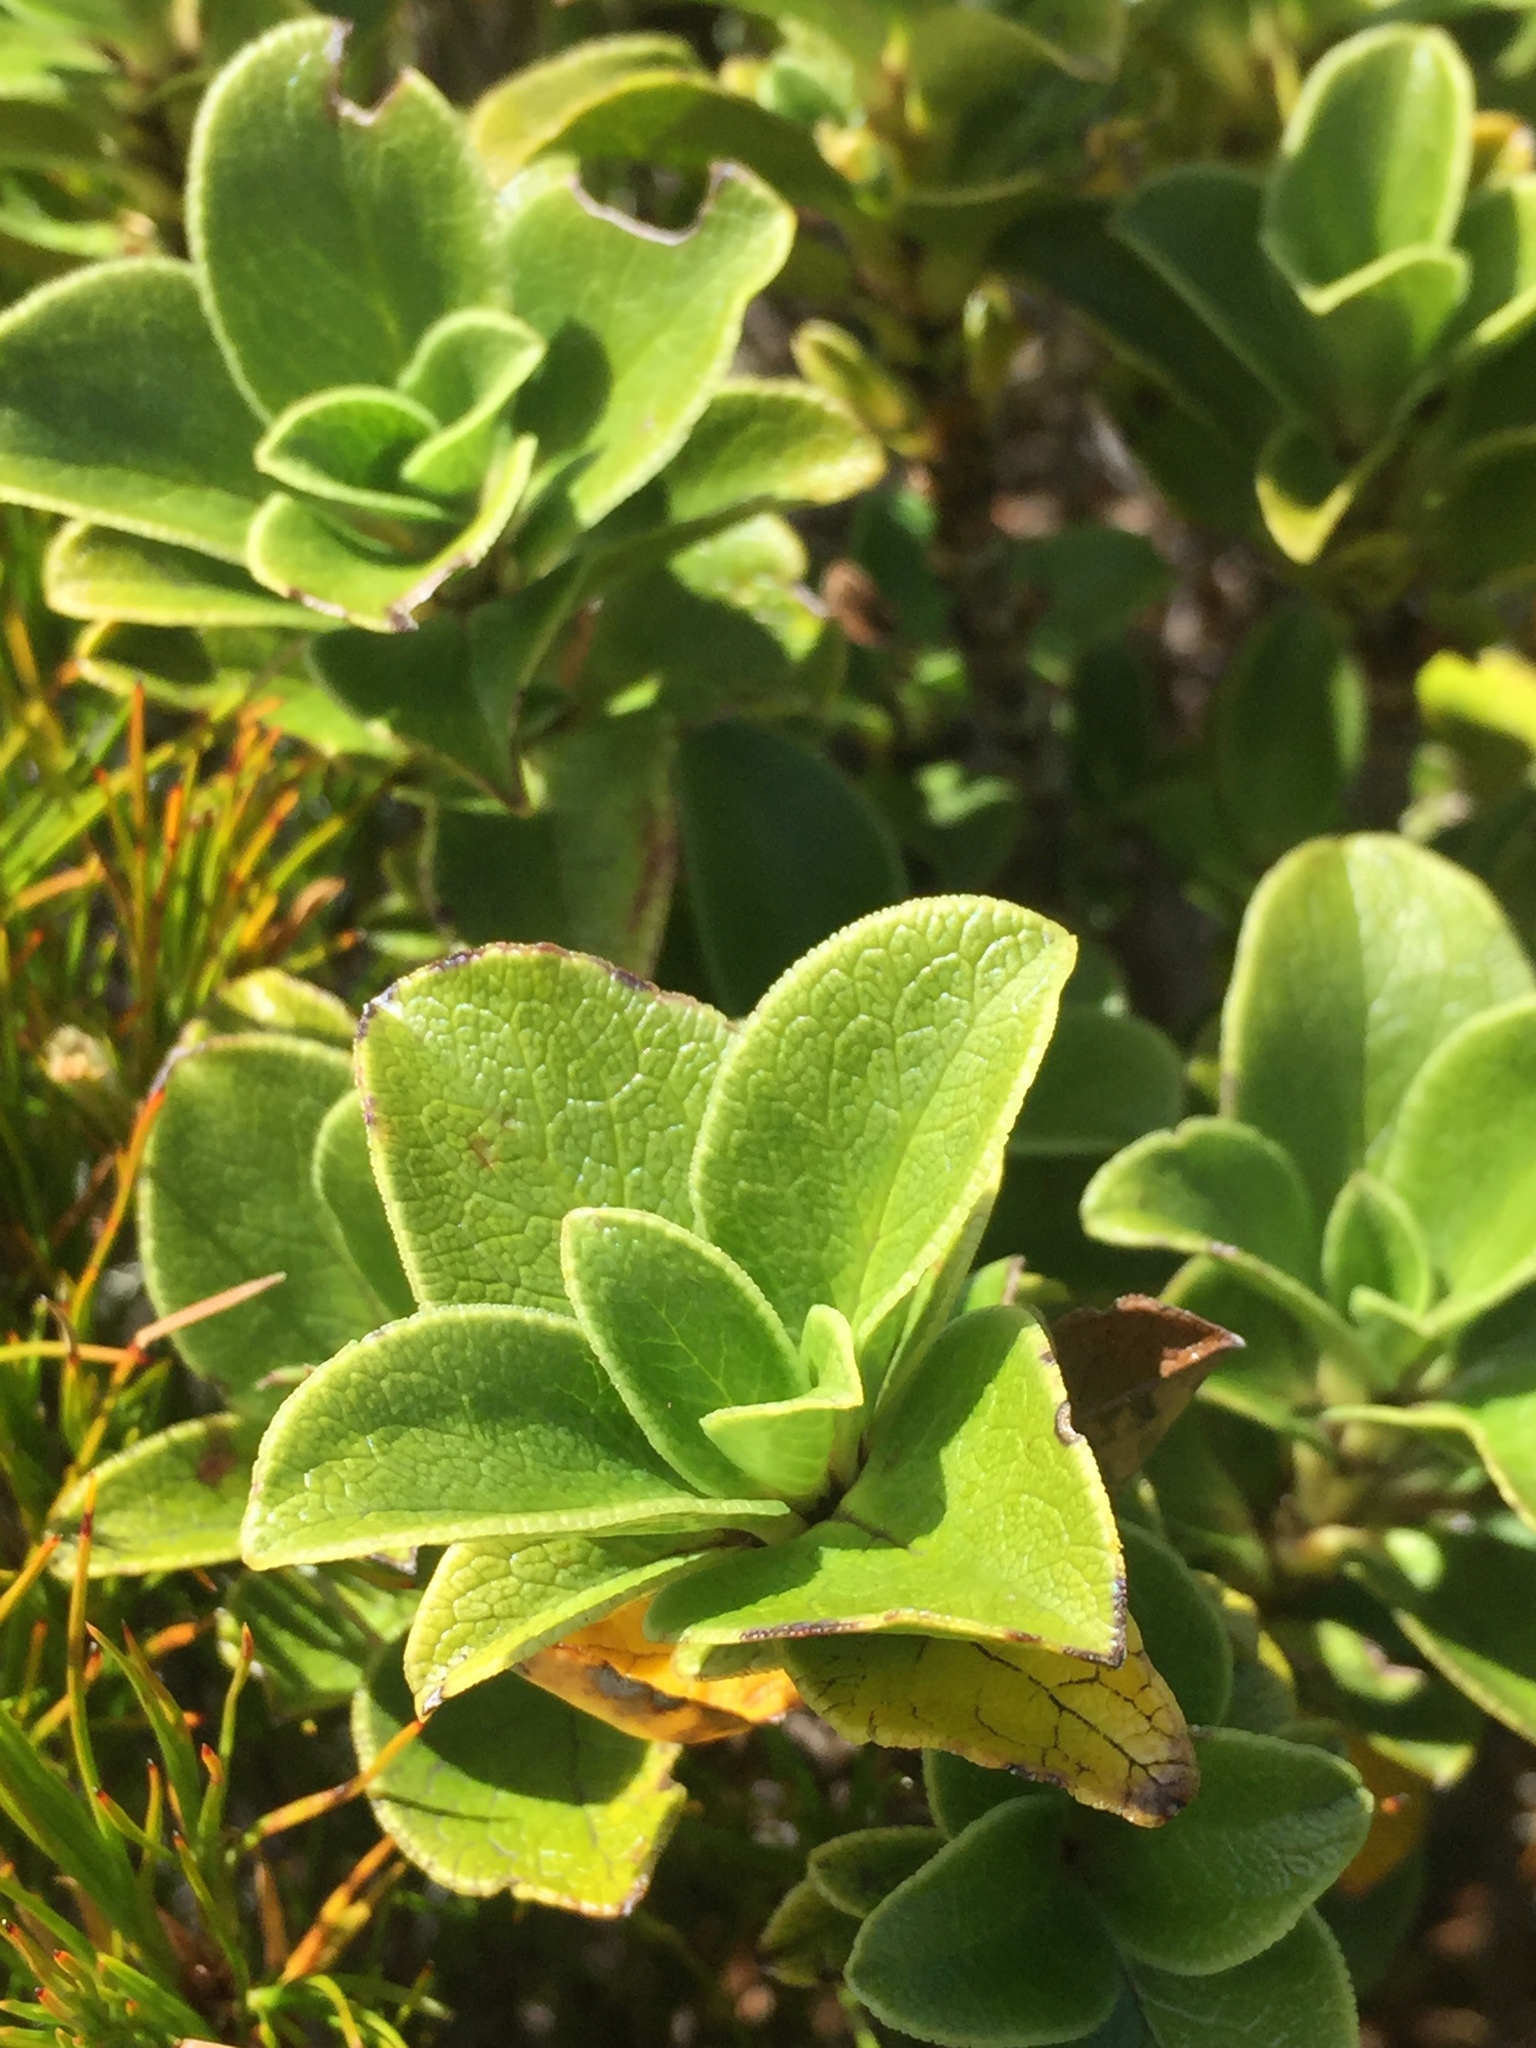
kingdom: Plantae
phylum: Tracheophyta
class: Magnoliopsida
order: Gentianales
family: Rubiaceae
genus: Coprosma
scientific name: Coprosma serrulata
